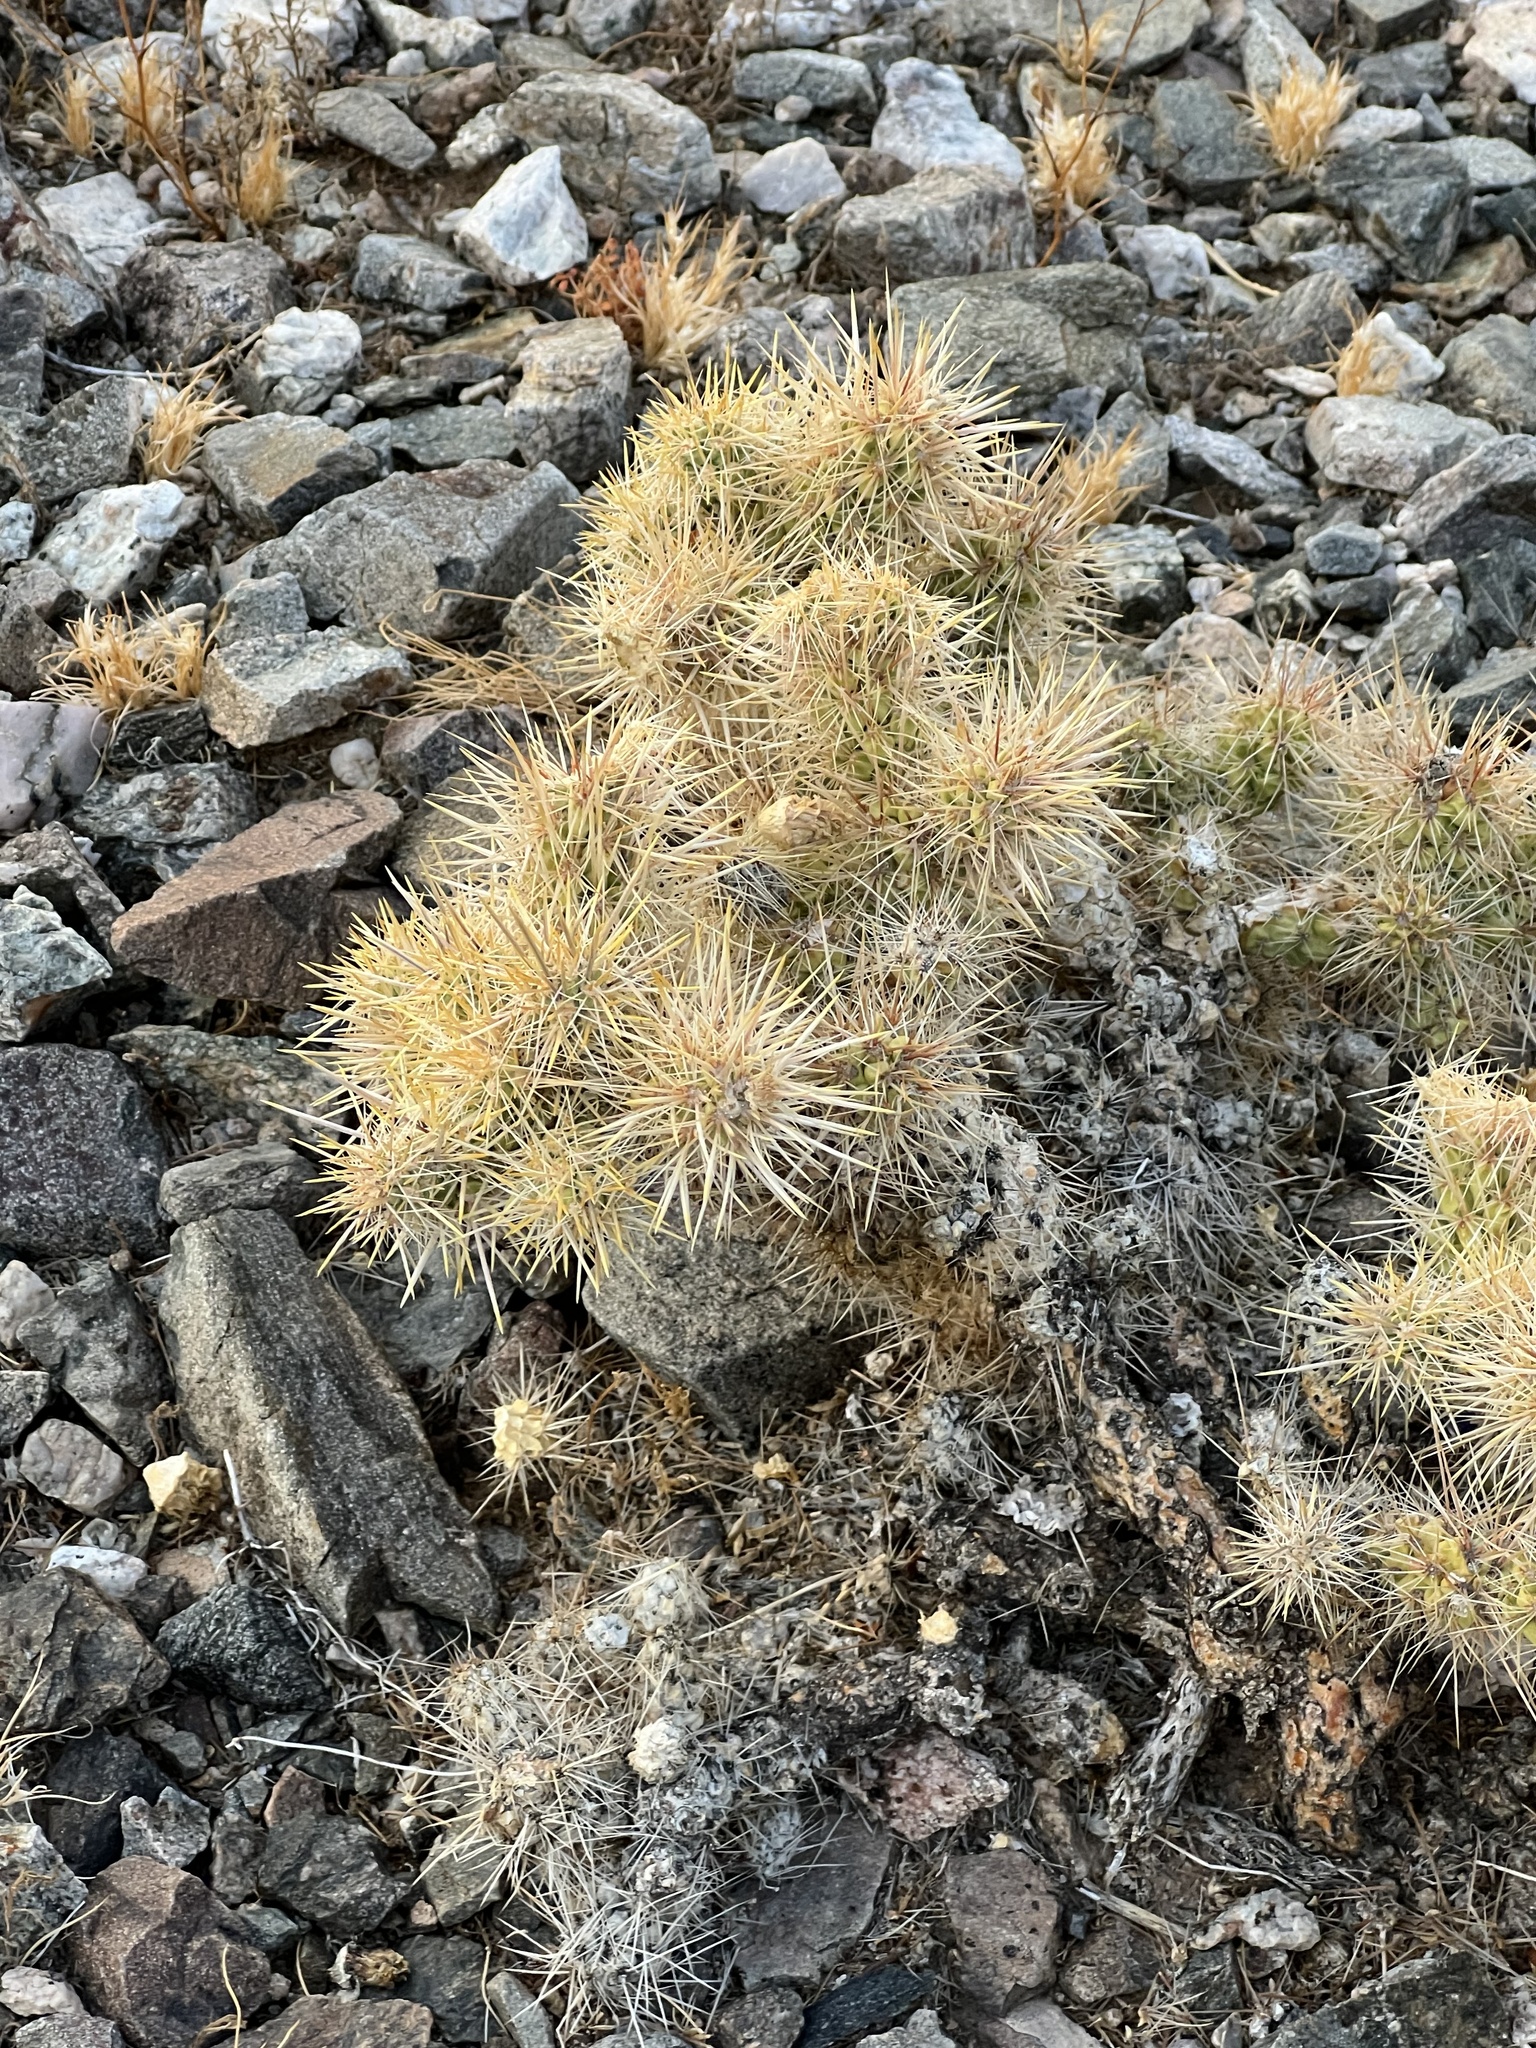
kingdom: Plantae
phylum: Tracheophyta
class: Magnoliopsida
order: Caryophyllales
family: Cactaceae
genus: Cylindropuntia
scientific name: Cylindropuntia echinocarpa
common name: Ground cholla
